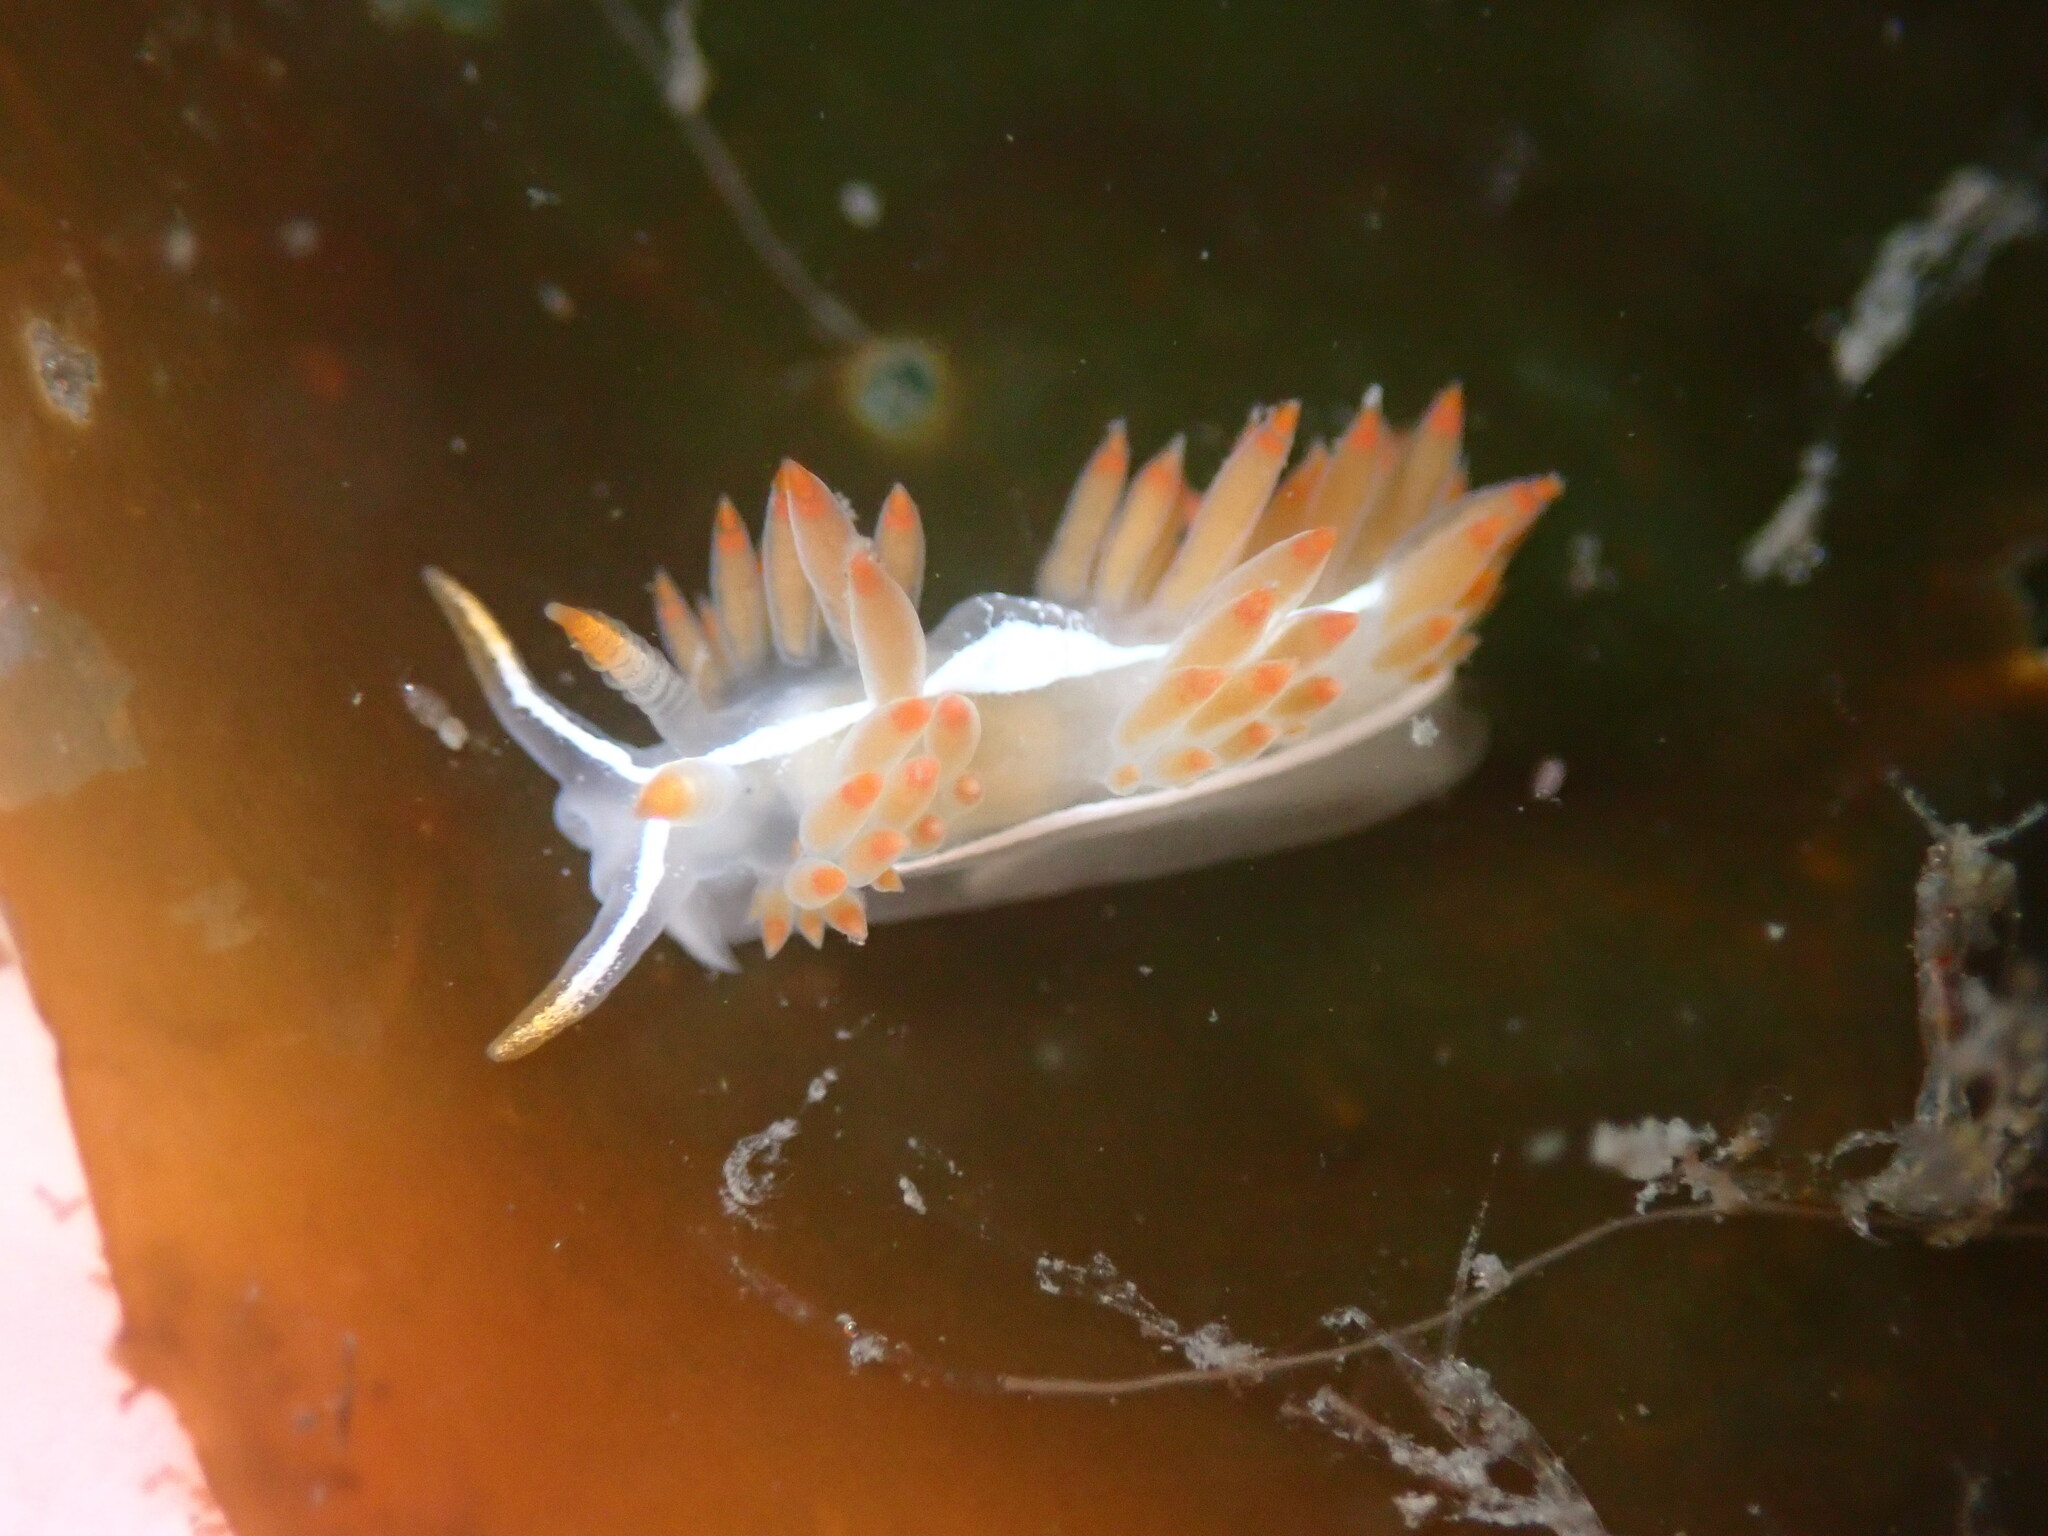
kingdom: Animalia
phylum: Mollusca
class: Gastropoda
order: Nudibranchia
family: Coryphellidae
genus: Coryphella
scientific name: Coryphella trilineata
